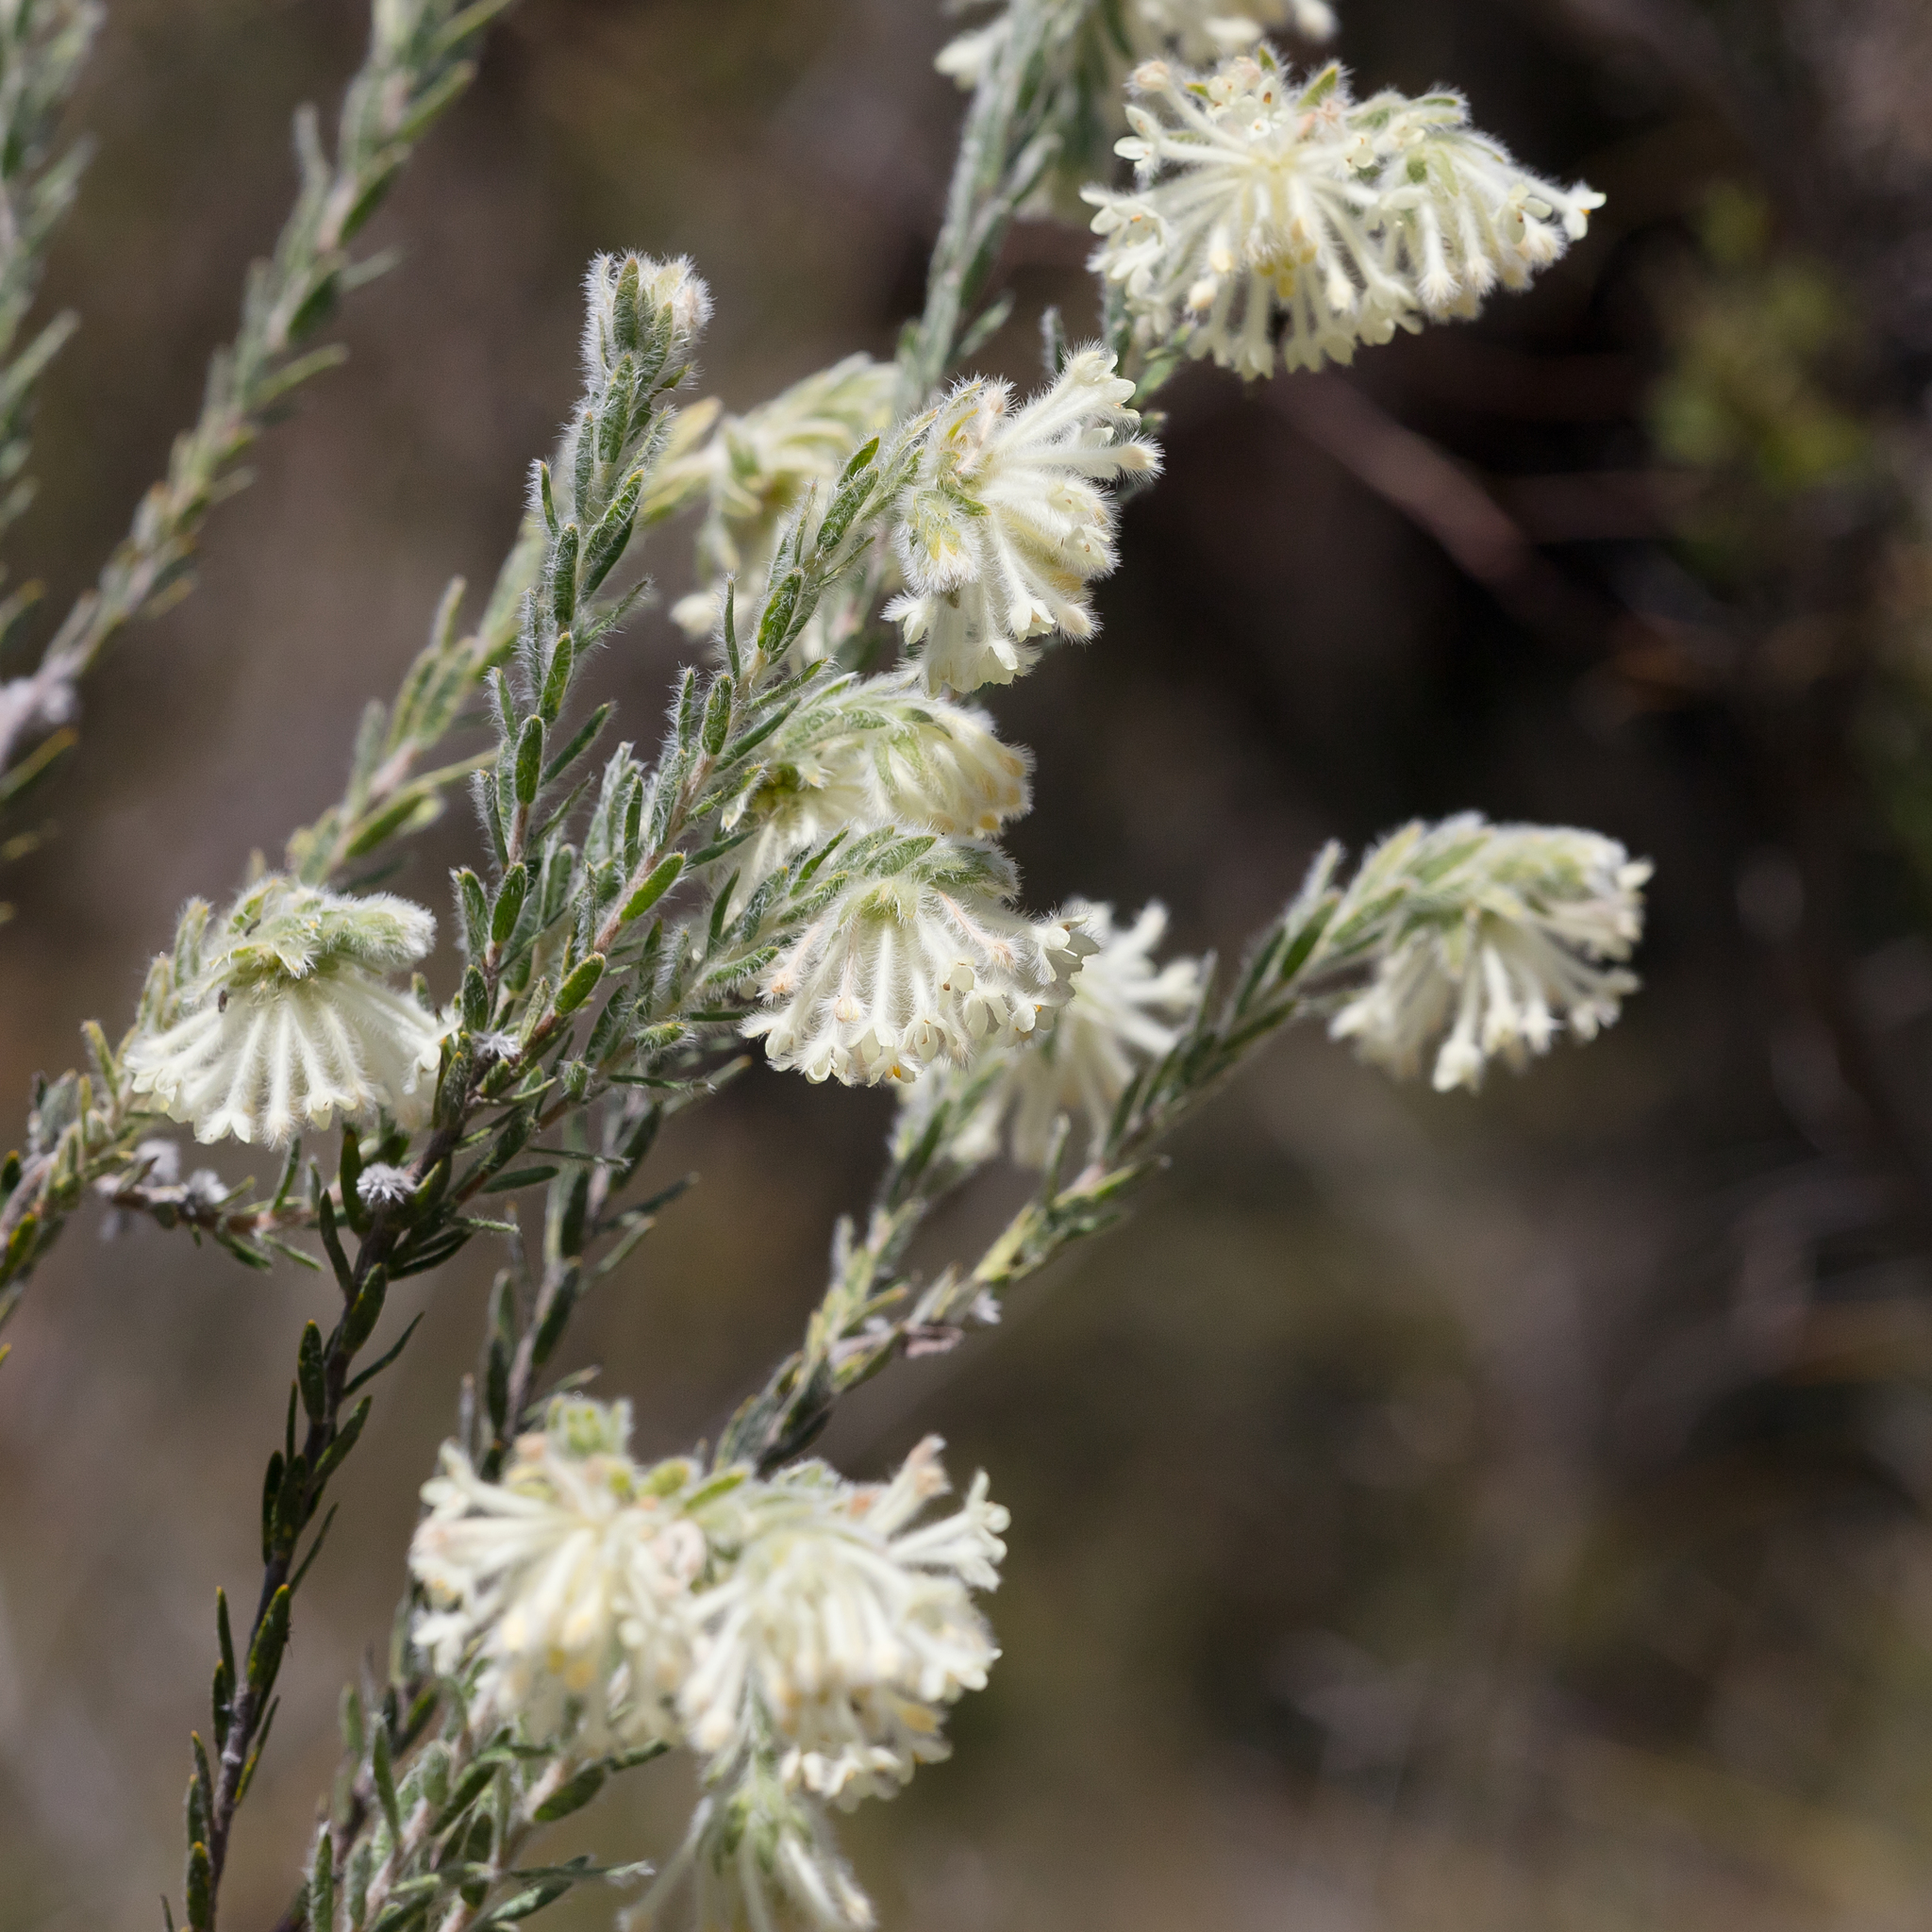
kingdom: Plantae
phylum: Tracheophyta
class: Magnoliopsida
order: Malvales
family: Thymelaeaceae
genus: Pimelea
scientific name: Pimelea octophylla
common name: Woolly riceflower
